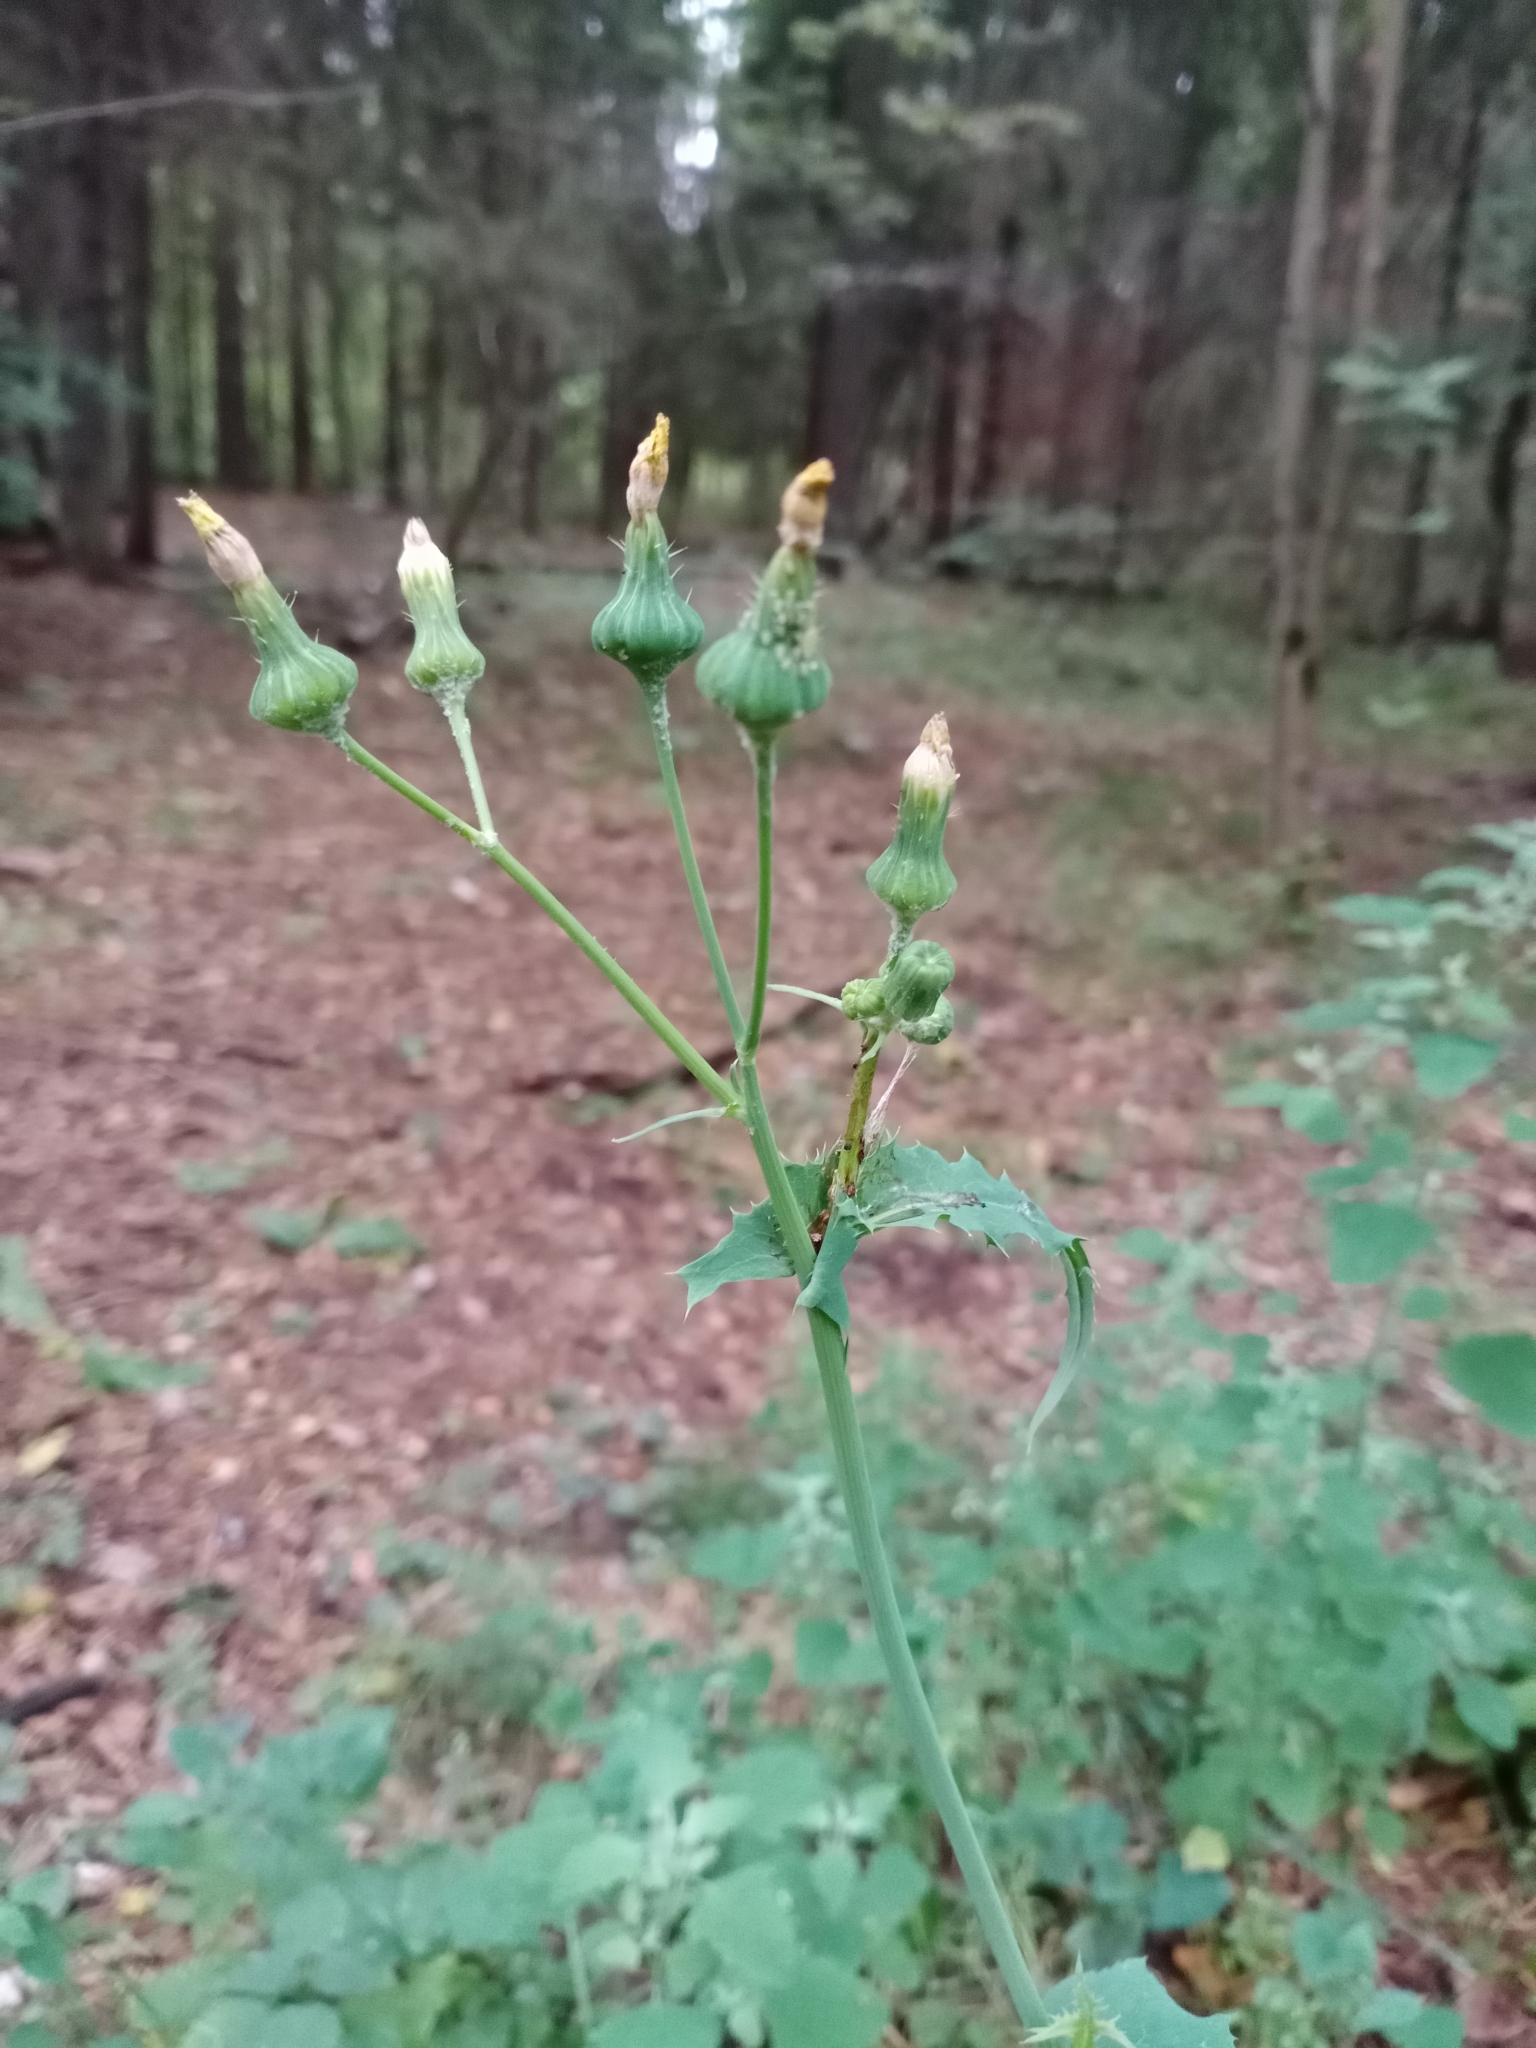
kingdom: Plantae
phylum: Tracheophyta
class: Magnoliopsida
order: Asterales
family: Asteraceae
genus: Sonchus
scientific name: Sonchus oleraceus
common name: Common sowthistle
